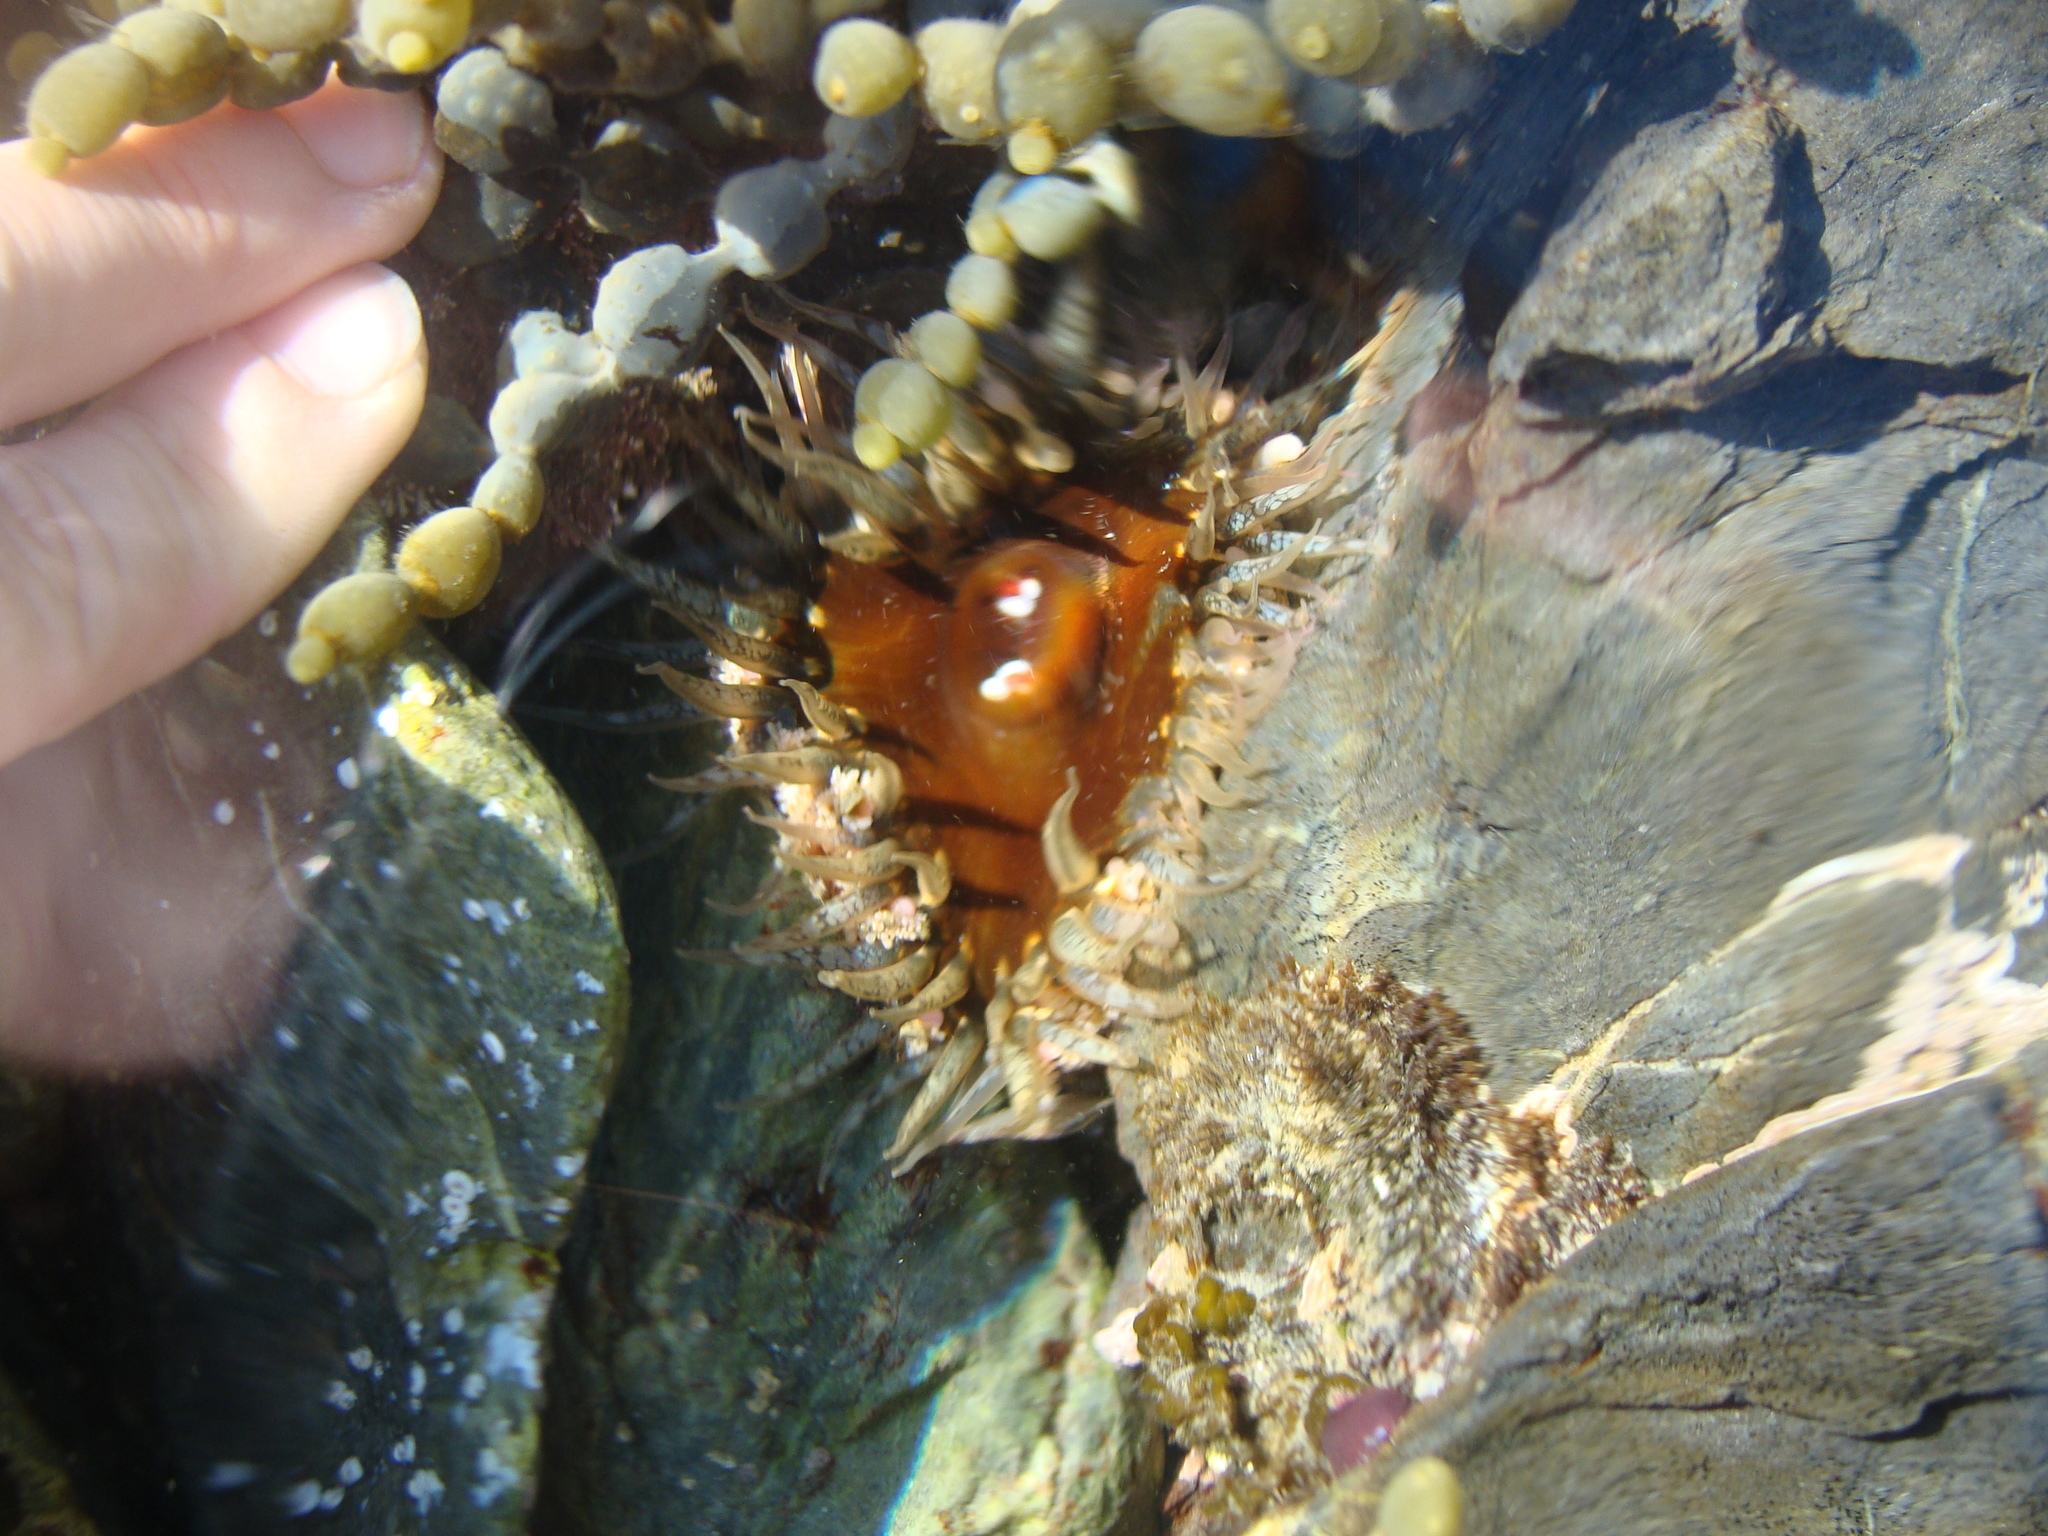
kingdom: Animalia
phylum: Cnidaria
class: Anthozoa
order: Actiniaria
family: Actiniidae
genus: Oulactis
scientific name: Oulactis muscosa
